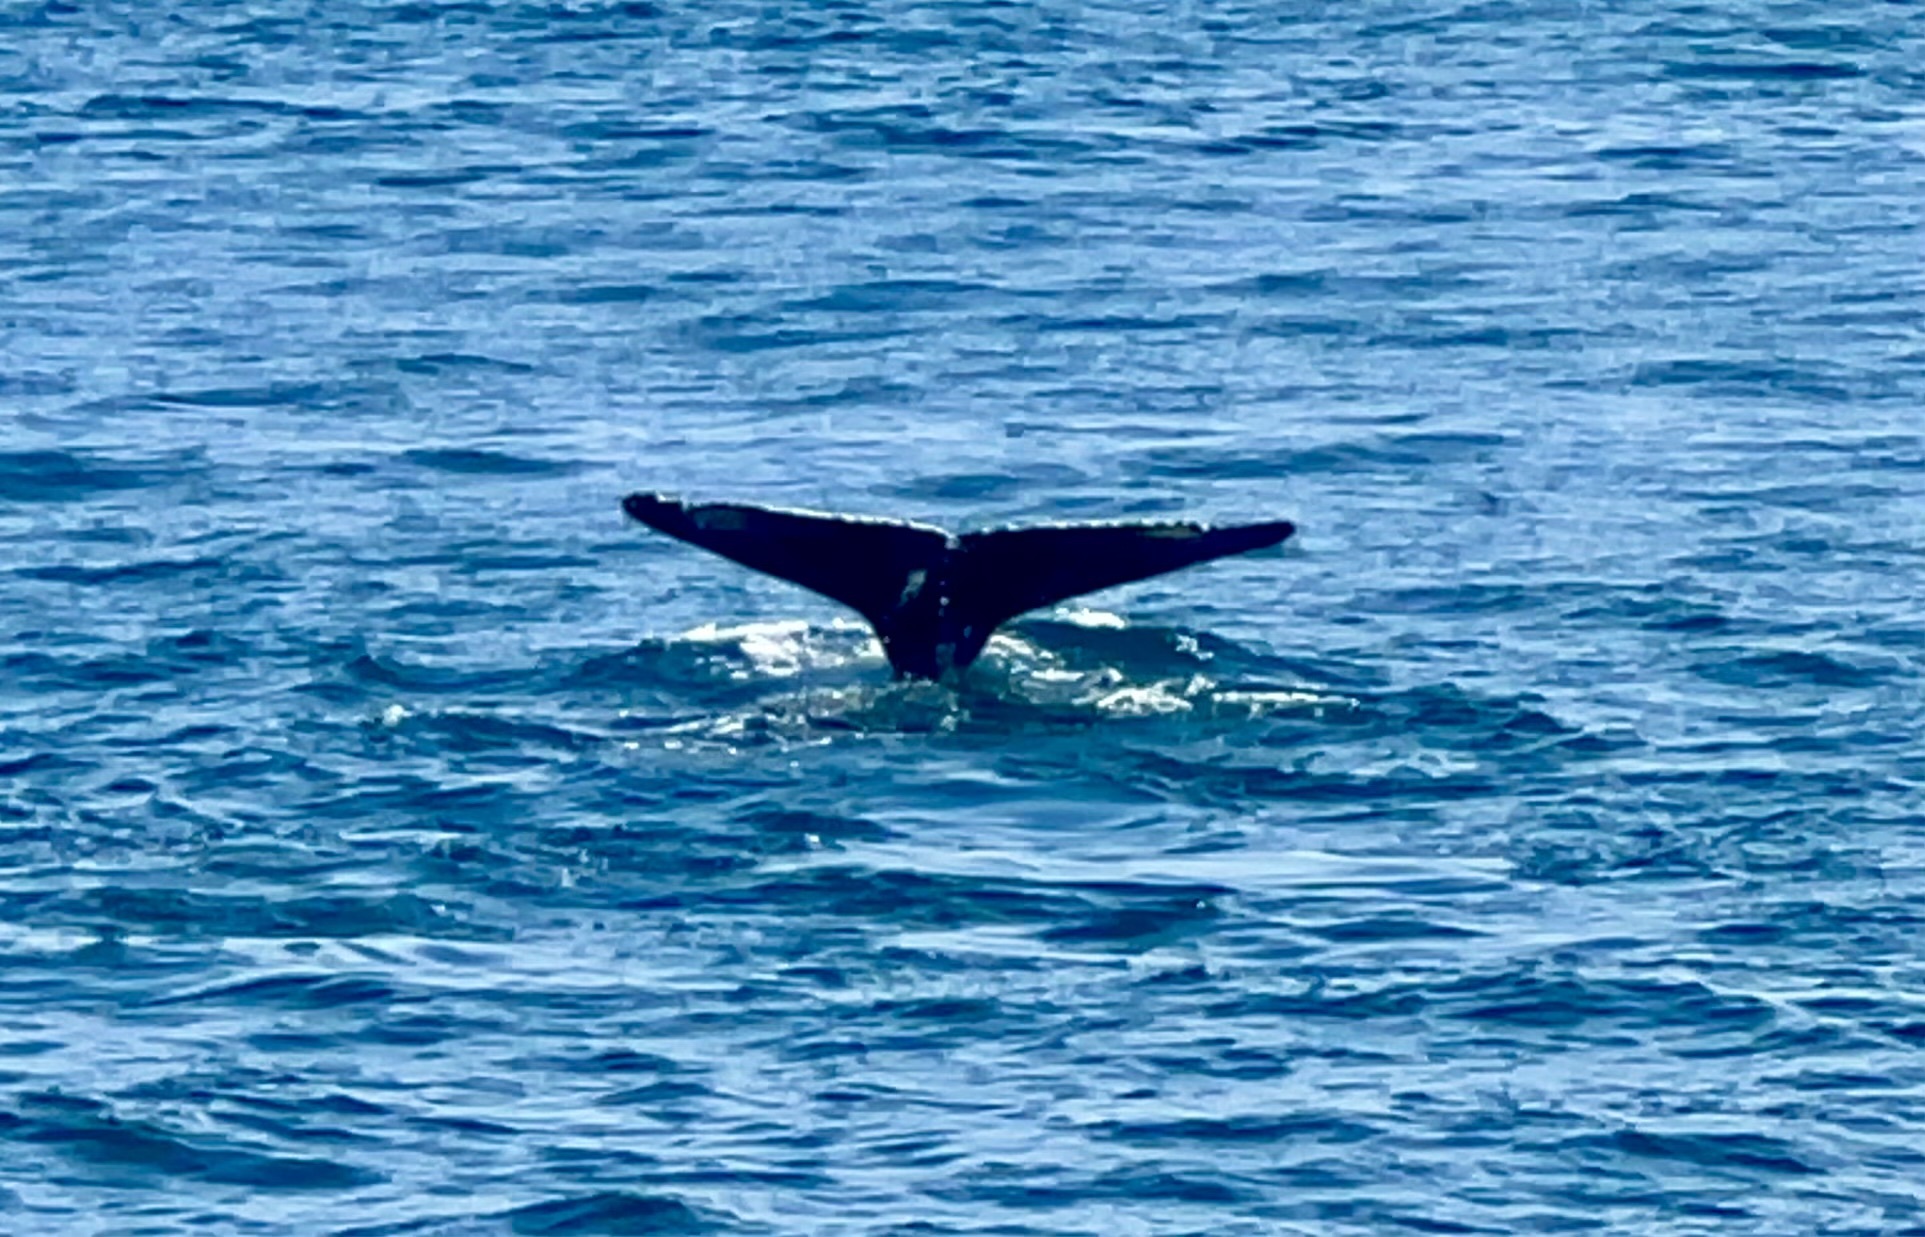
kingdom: Animalia
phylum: Chordata
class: Mammalia
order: Cetacea
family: Balaenopteridae
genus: Megaptera
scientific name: Megaptera novaeangliae
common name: Humpback whale
